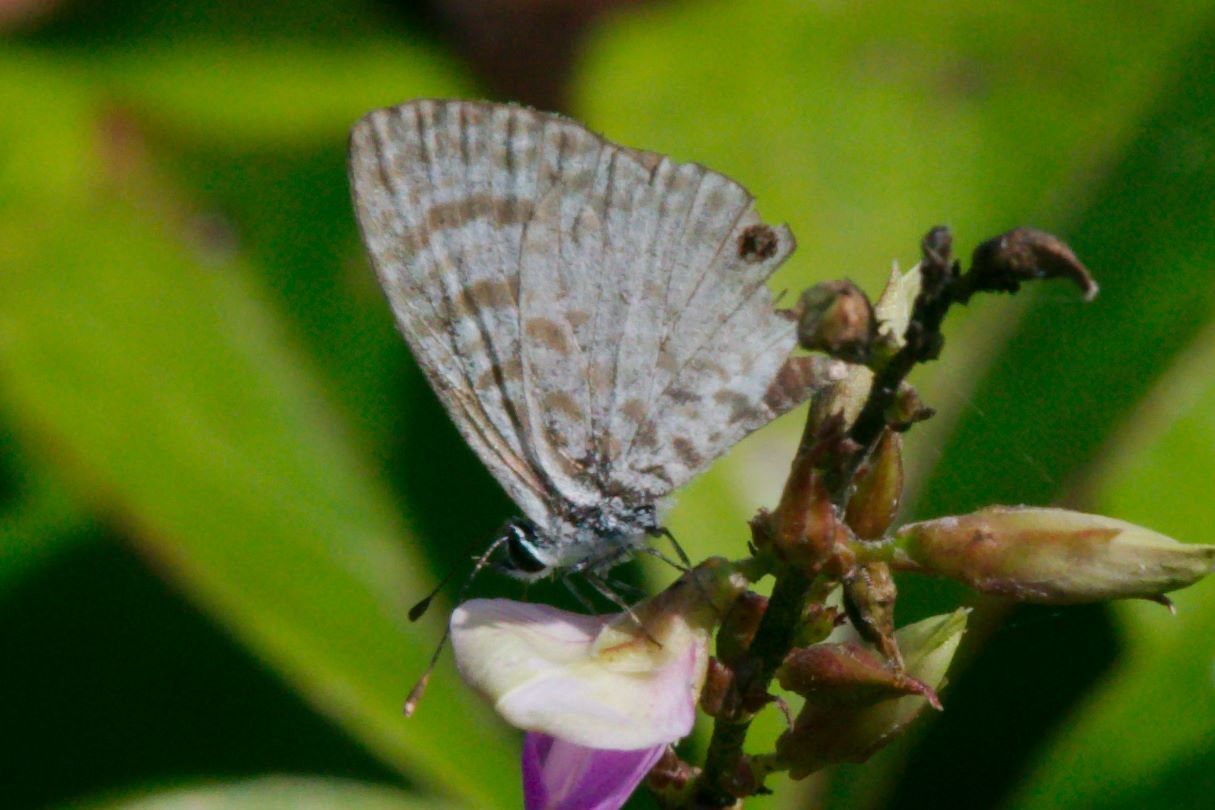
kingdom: Animalia
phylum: Arthropoda
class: Insecta
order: Lepidoptera
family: Lycaenidae
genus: Leptotes
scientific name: Leptotes cassius
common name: Cassius blue
